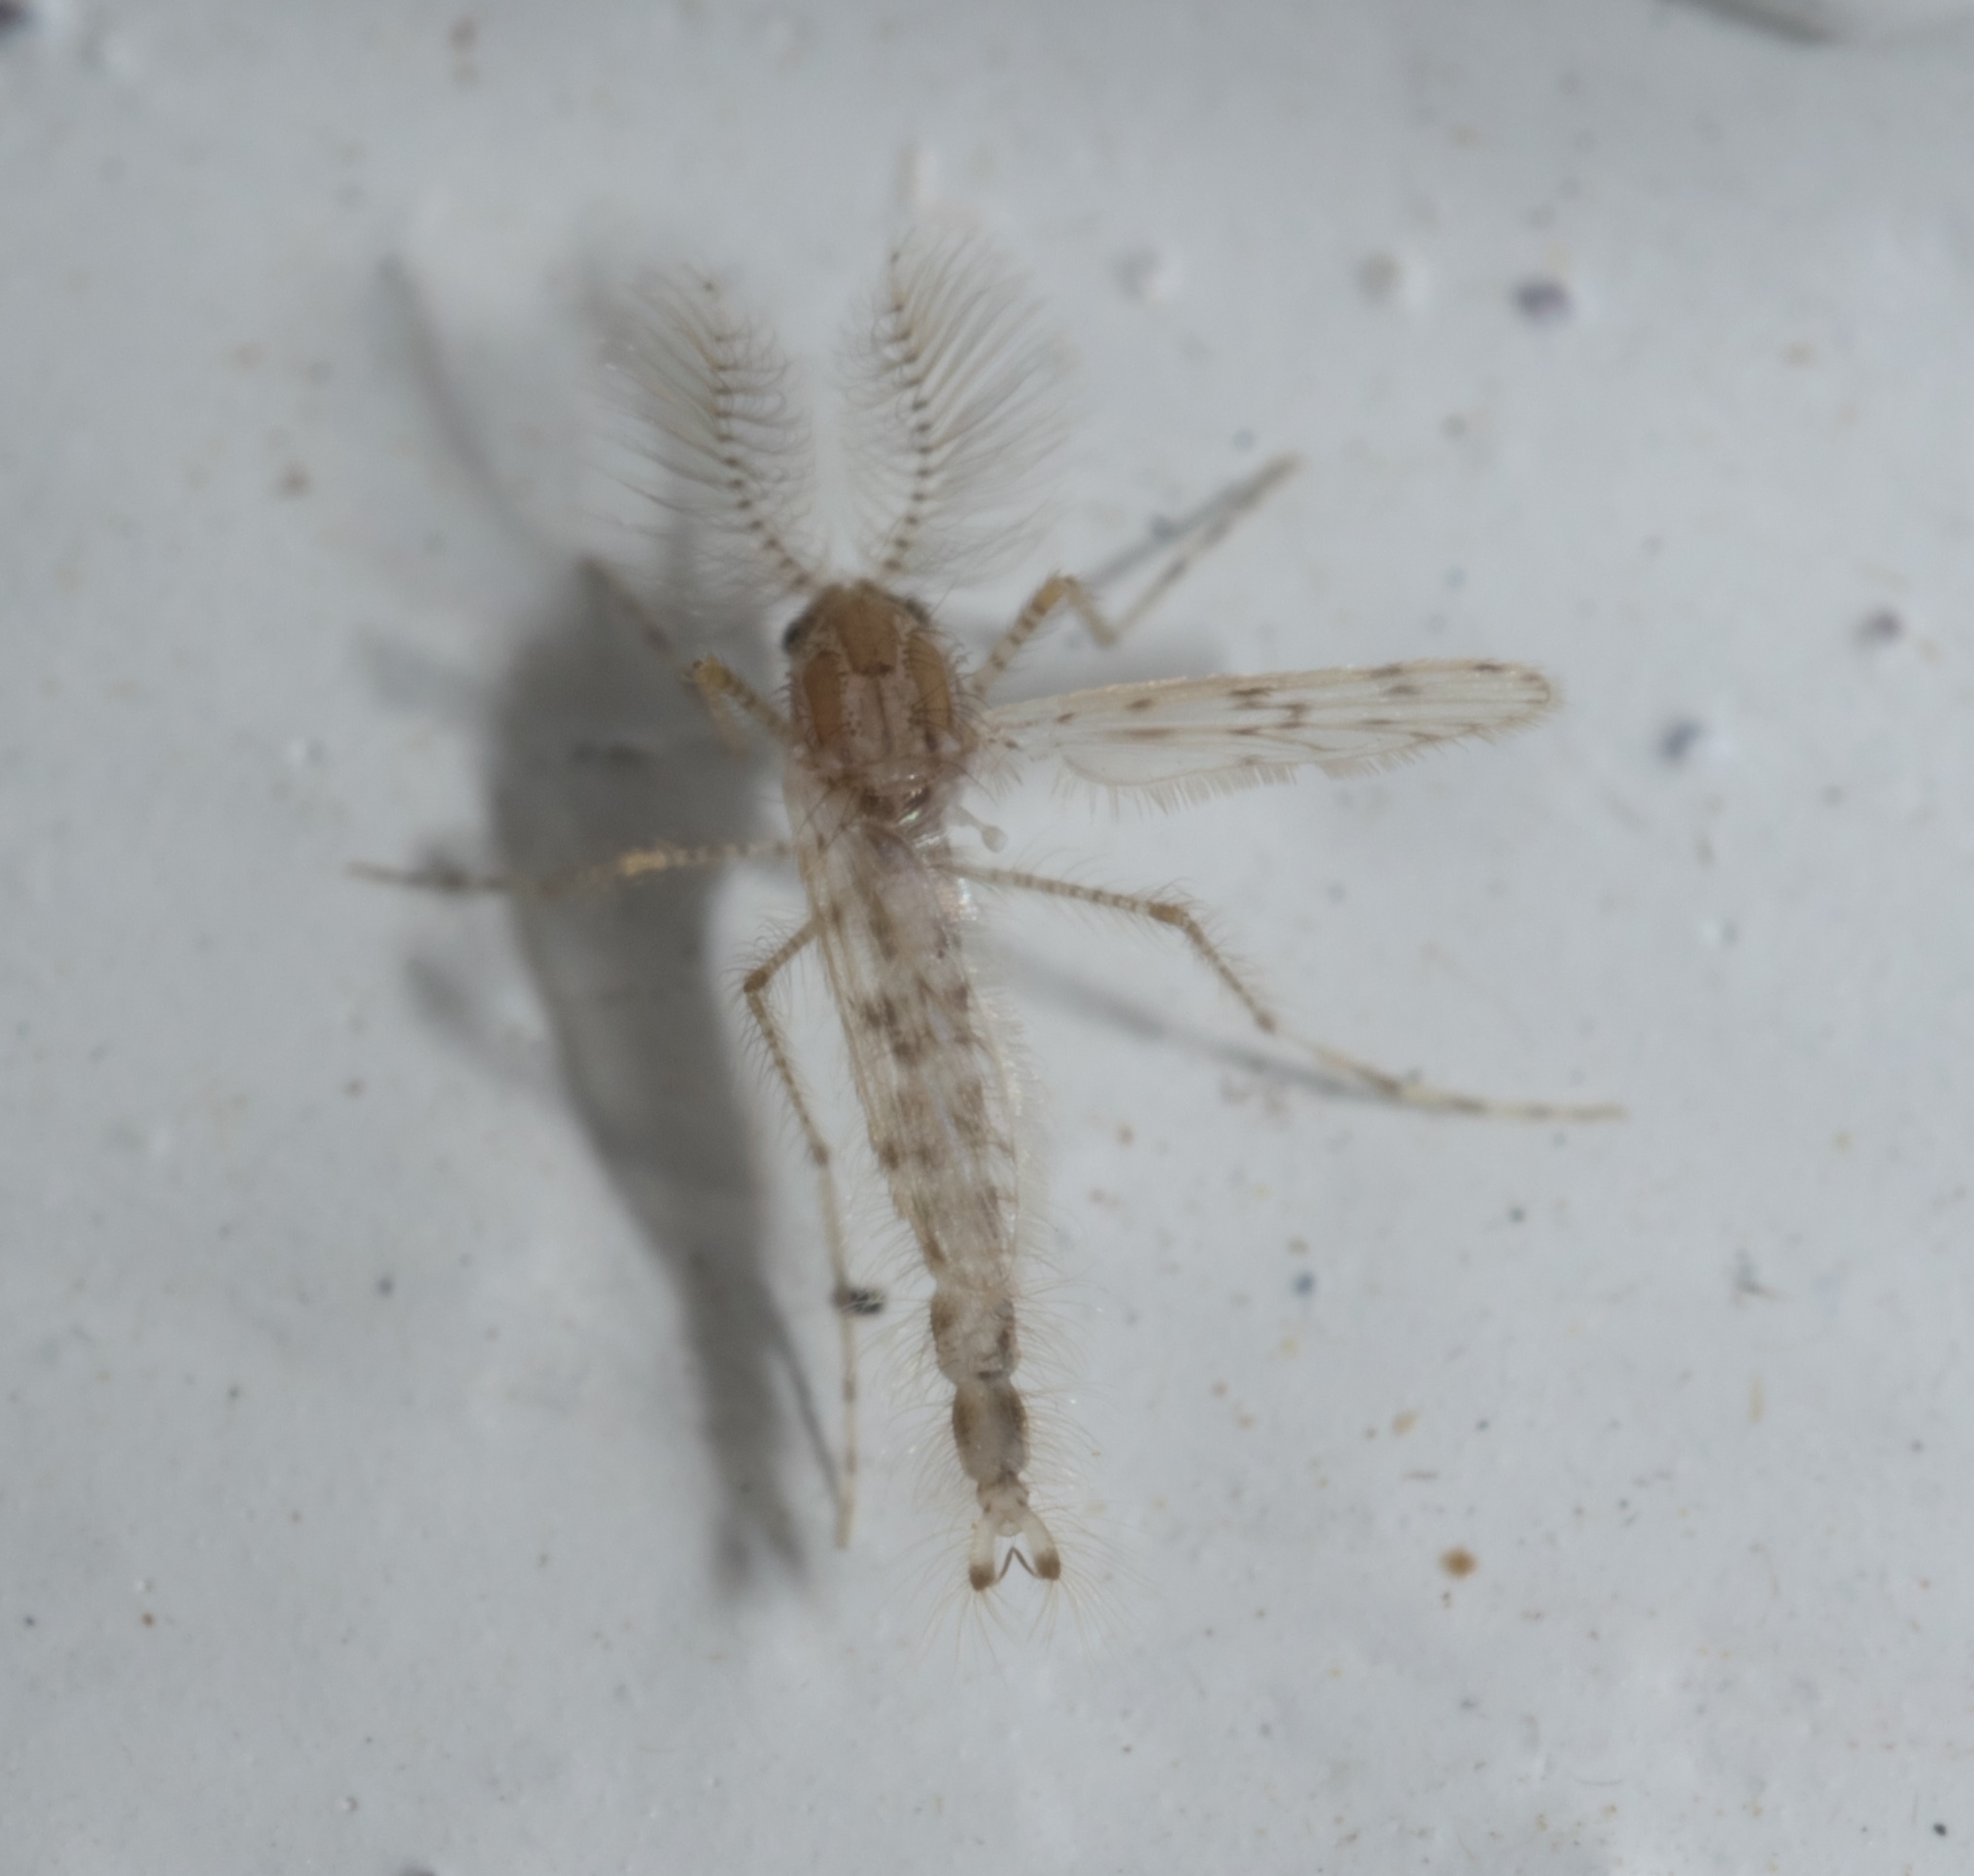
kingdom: Animalia
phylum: Arthropoda
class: Insecta
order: Diptera
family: Chaoboridae
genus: Chaoborus
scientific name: Chaoborus punctipennis
